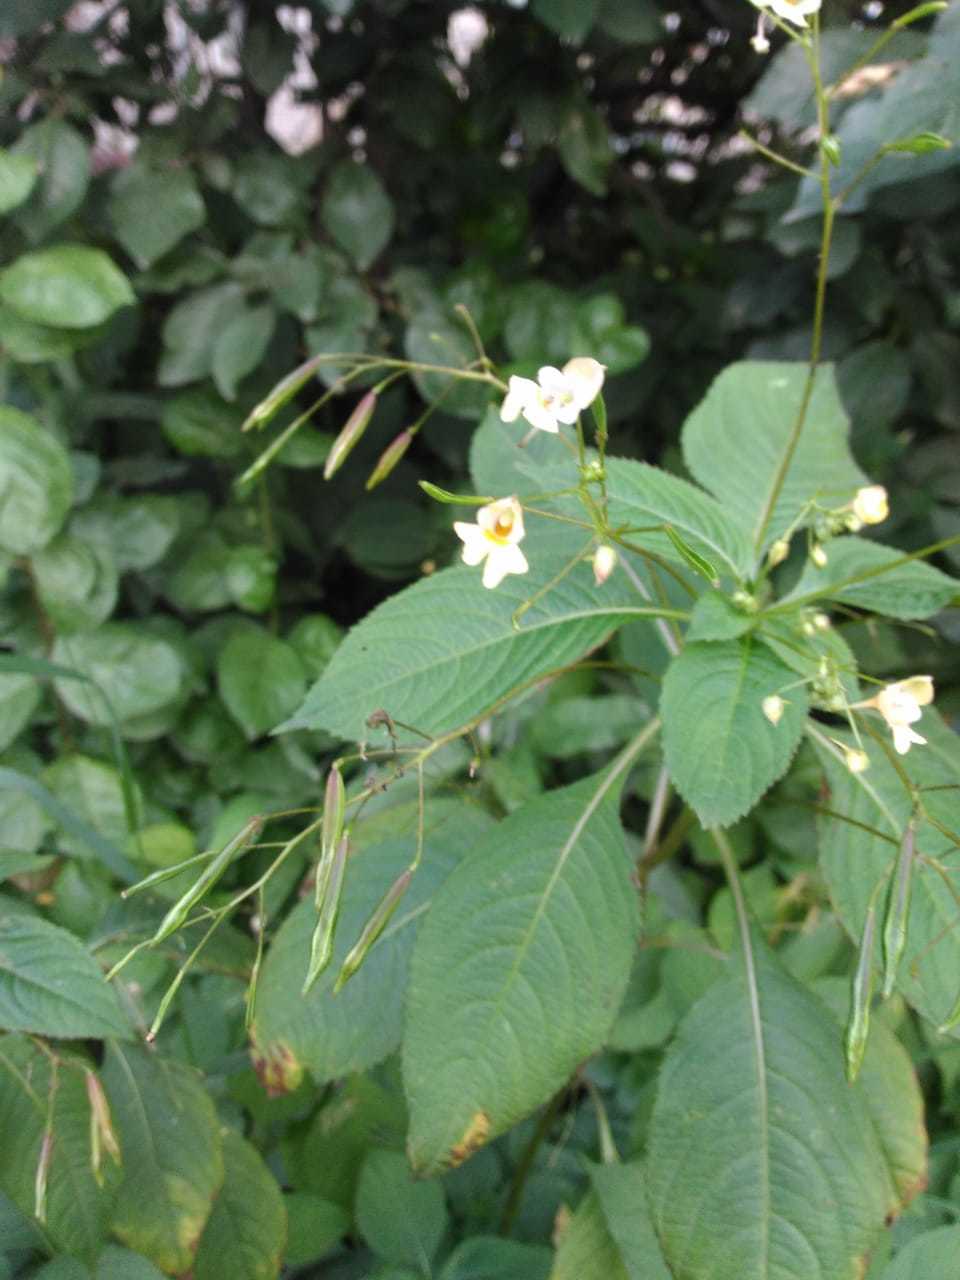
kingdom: Plantae
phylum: Tracheophyta
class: Magnoliopsida
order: Ericales
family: Balsaminaceae
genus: Impatiens
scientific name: Impatiens parviflora
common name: Small balsam
